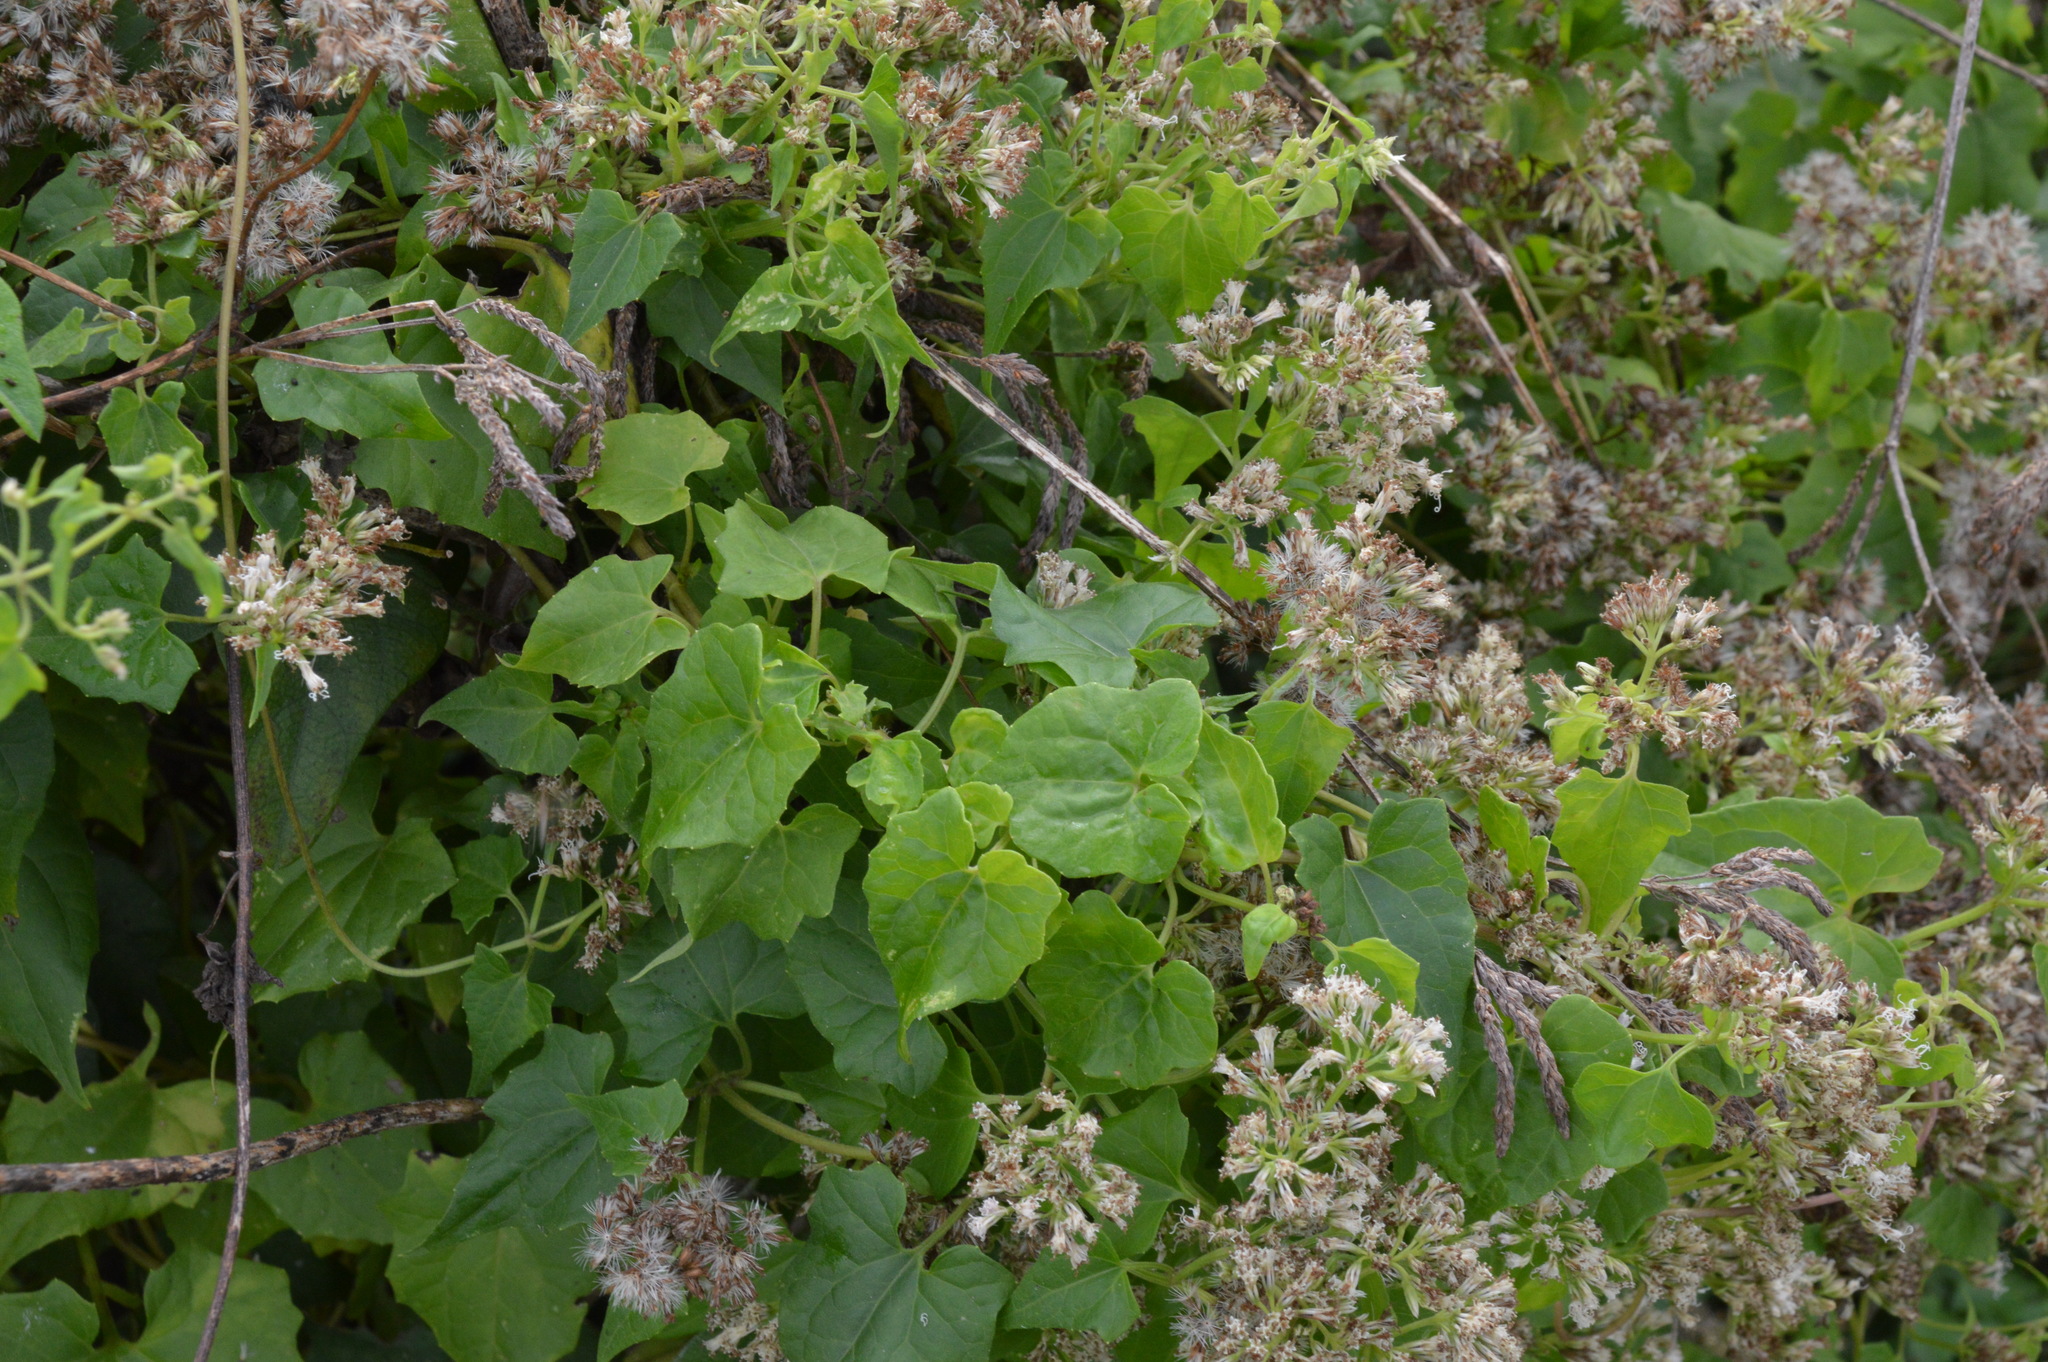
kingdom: Plantae
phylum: Tracheophyta
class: Magnoliopsida
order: Asterales
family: Asteraceae
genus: Mikania
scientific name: Mikania scandens
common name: Climbing hempvine
